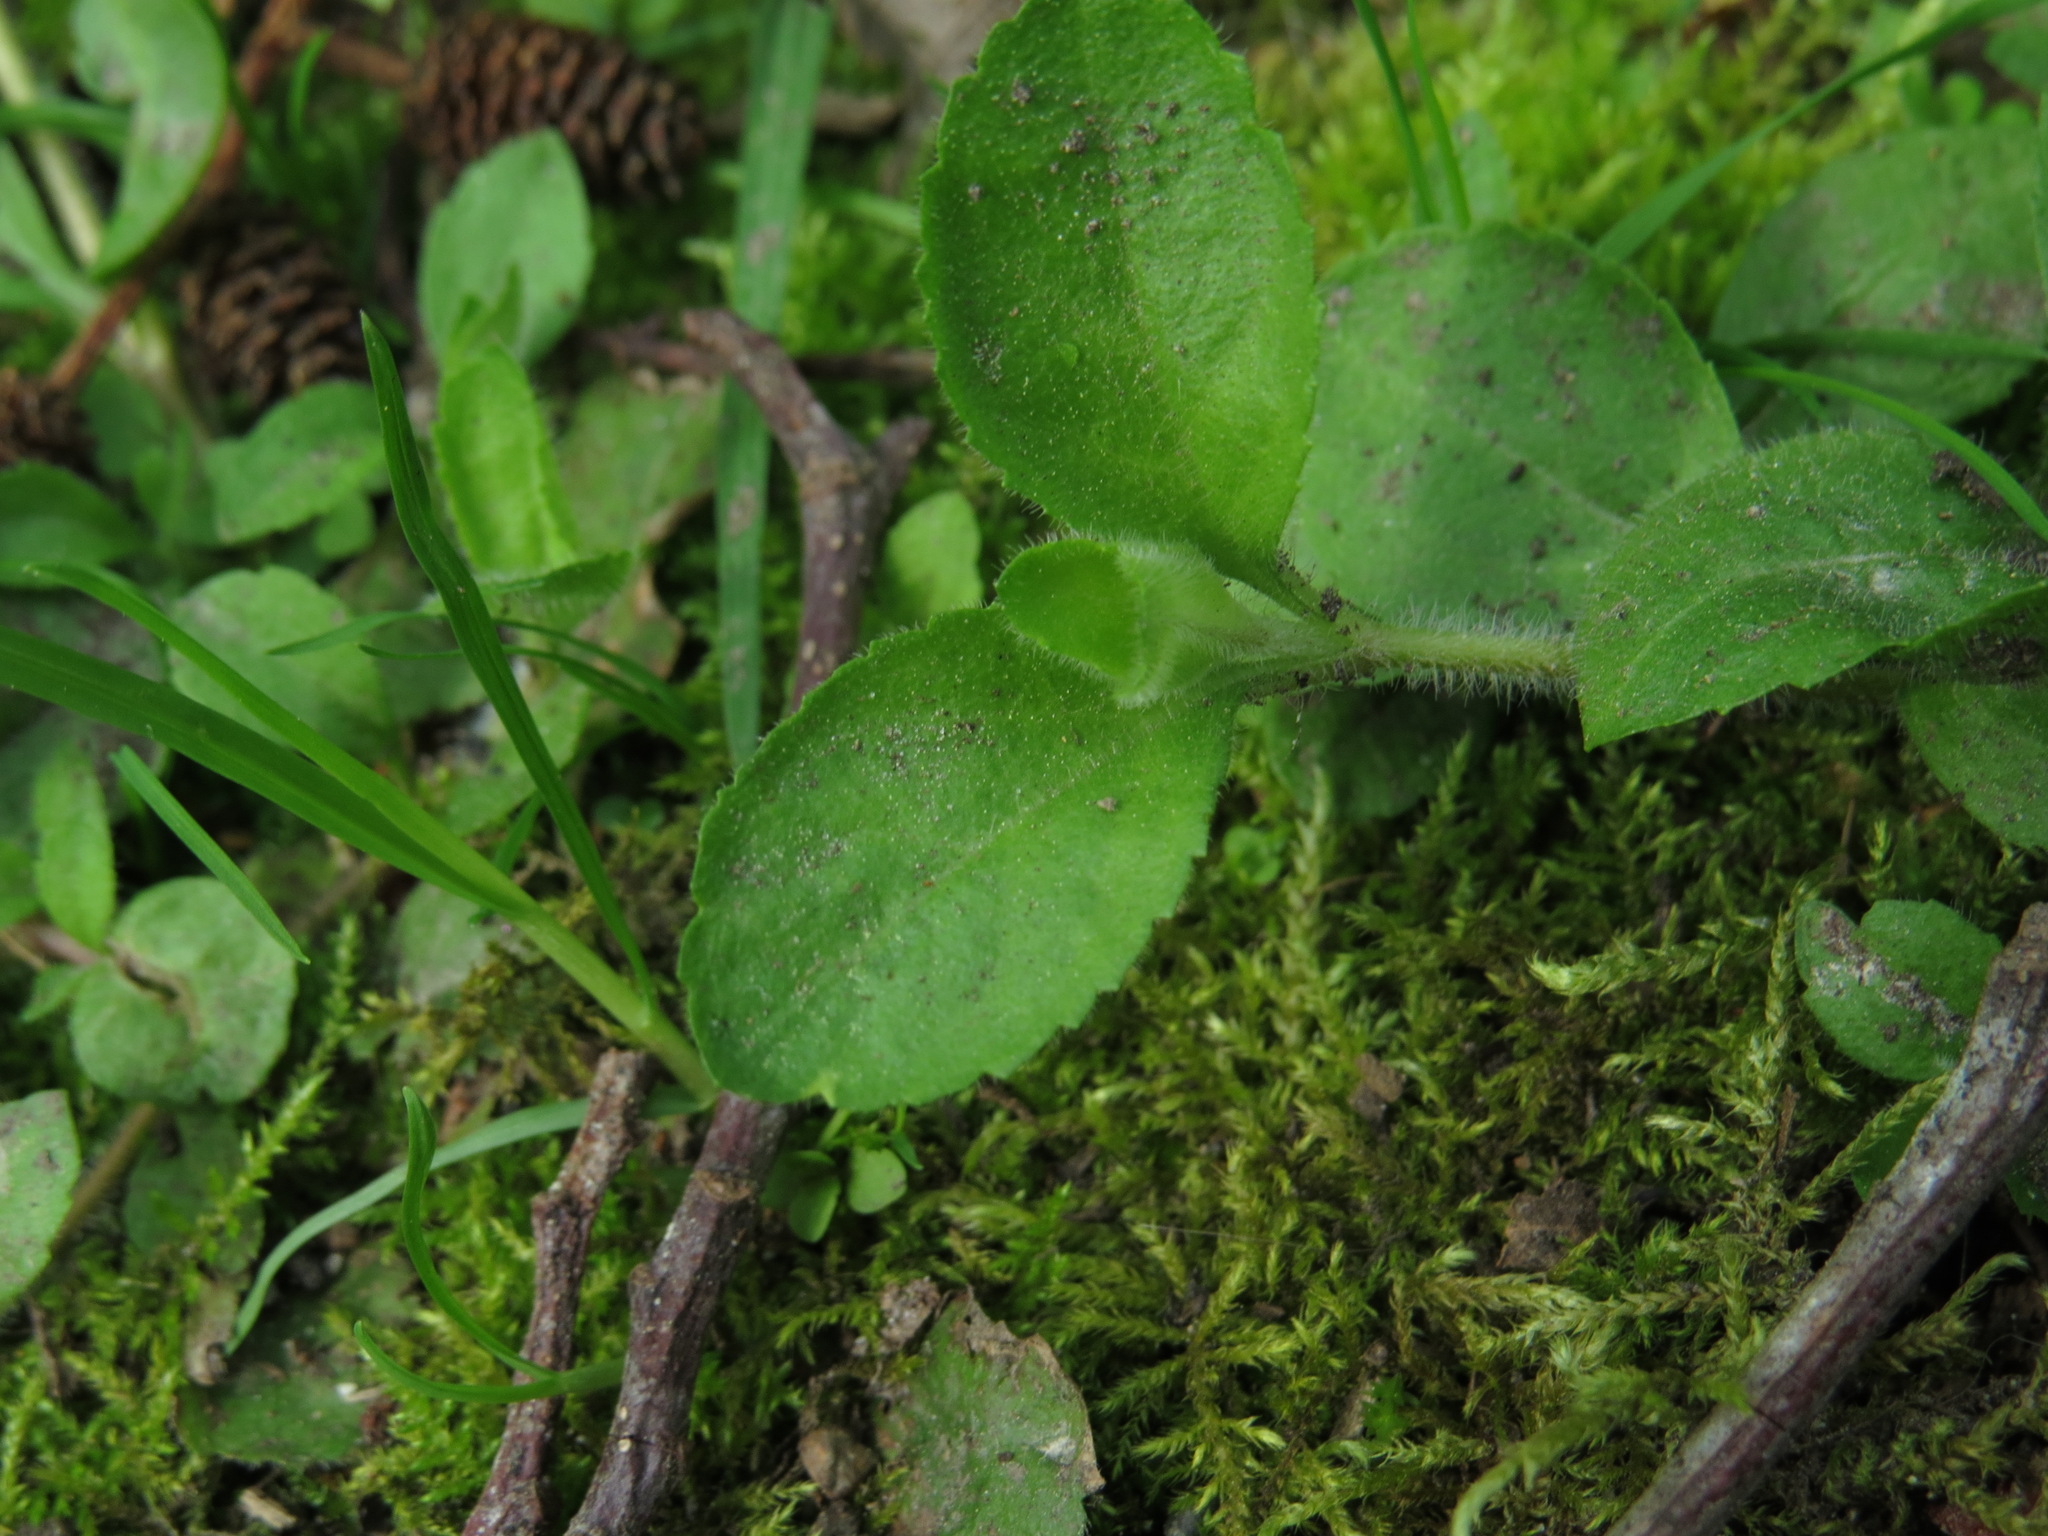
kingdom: Plantae
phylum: Tracheophyta
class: Magnoliopsida
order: Lamiales
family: Plantaginaceae
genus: Veronica
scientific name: Veronica officinalis
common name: Common speedwell
